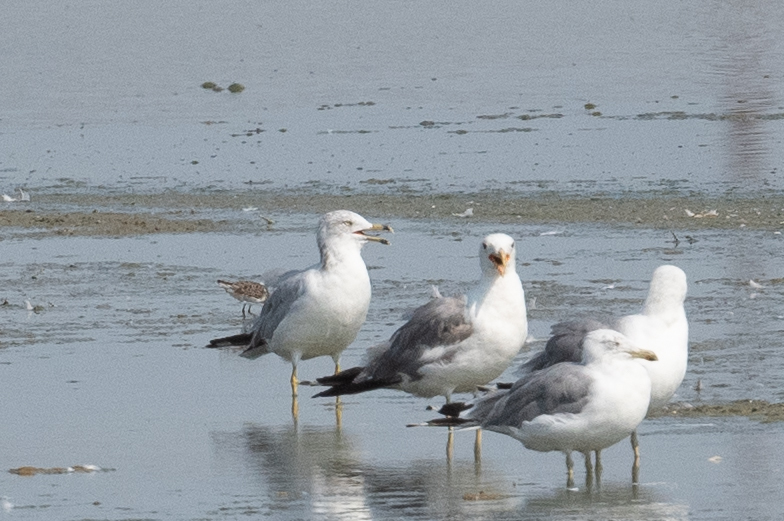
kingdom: Animalia
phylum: Chordata
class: Aves
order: Charadriiformes
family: Laridae
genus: Larus
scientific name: Larus californicus
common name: California gull
